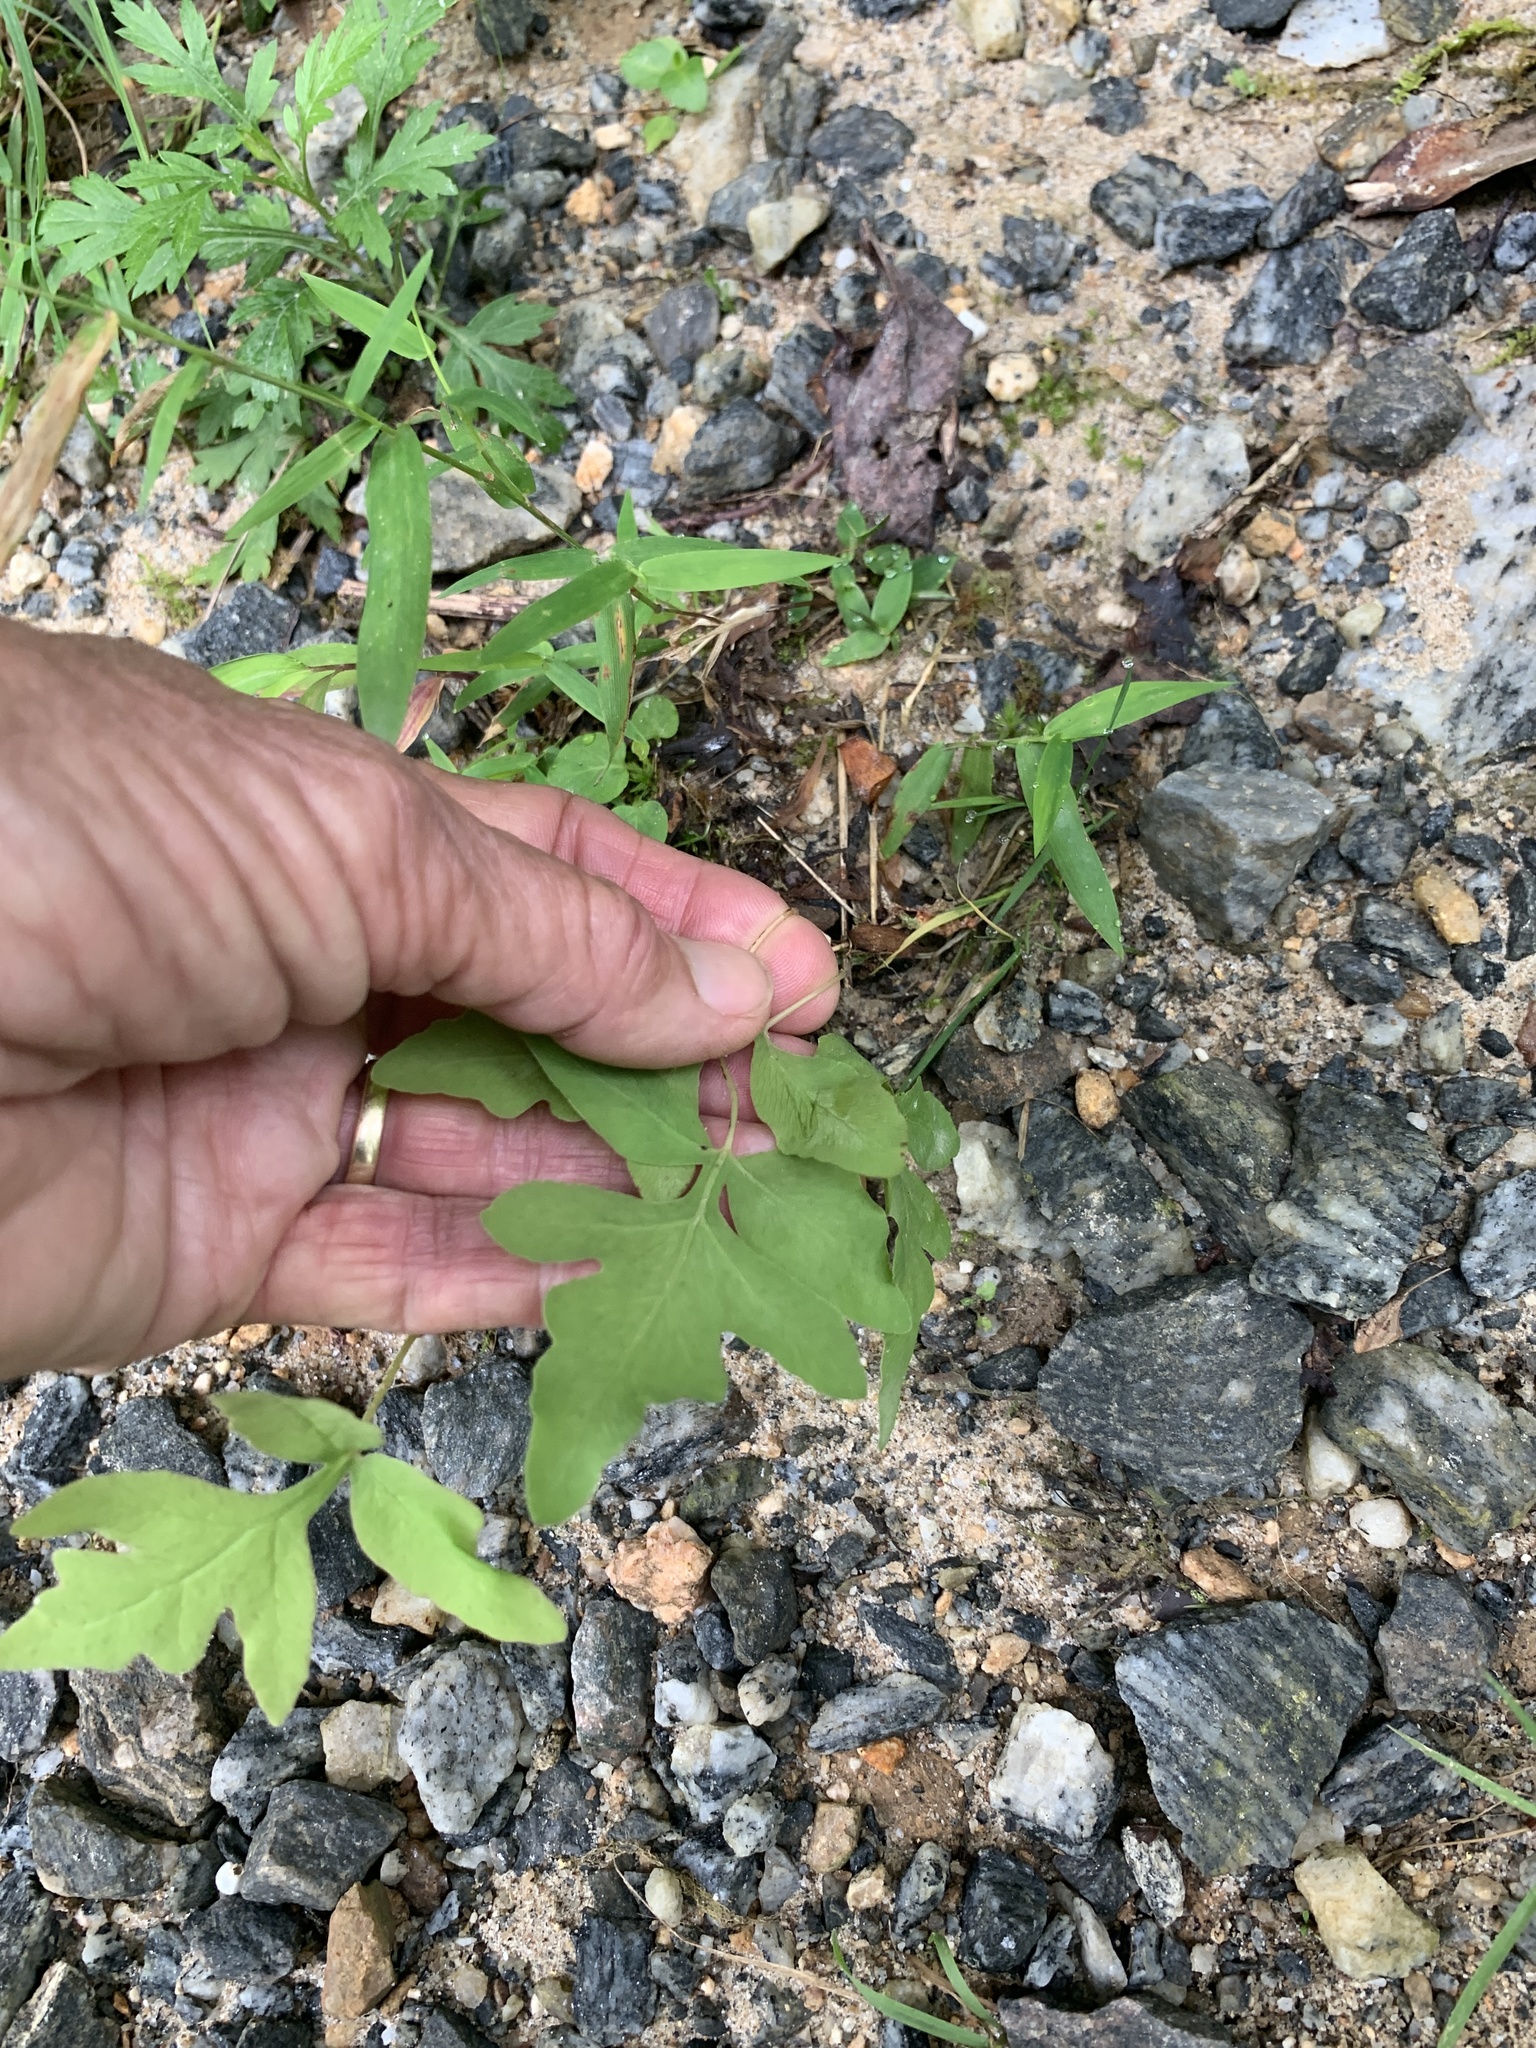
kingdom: Plantae
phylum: Tracheophyta
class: Polypodiopsida
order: Polypodiales
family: Onocleaceae
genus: Onoclea
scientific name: Onoclea sensibilis
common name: Sensitive fern
